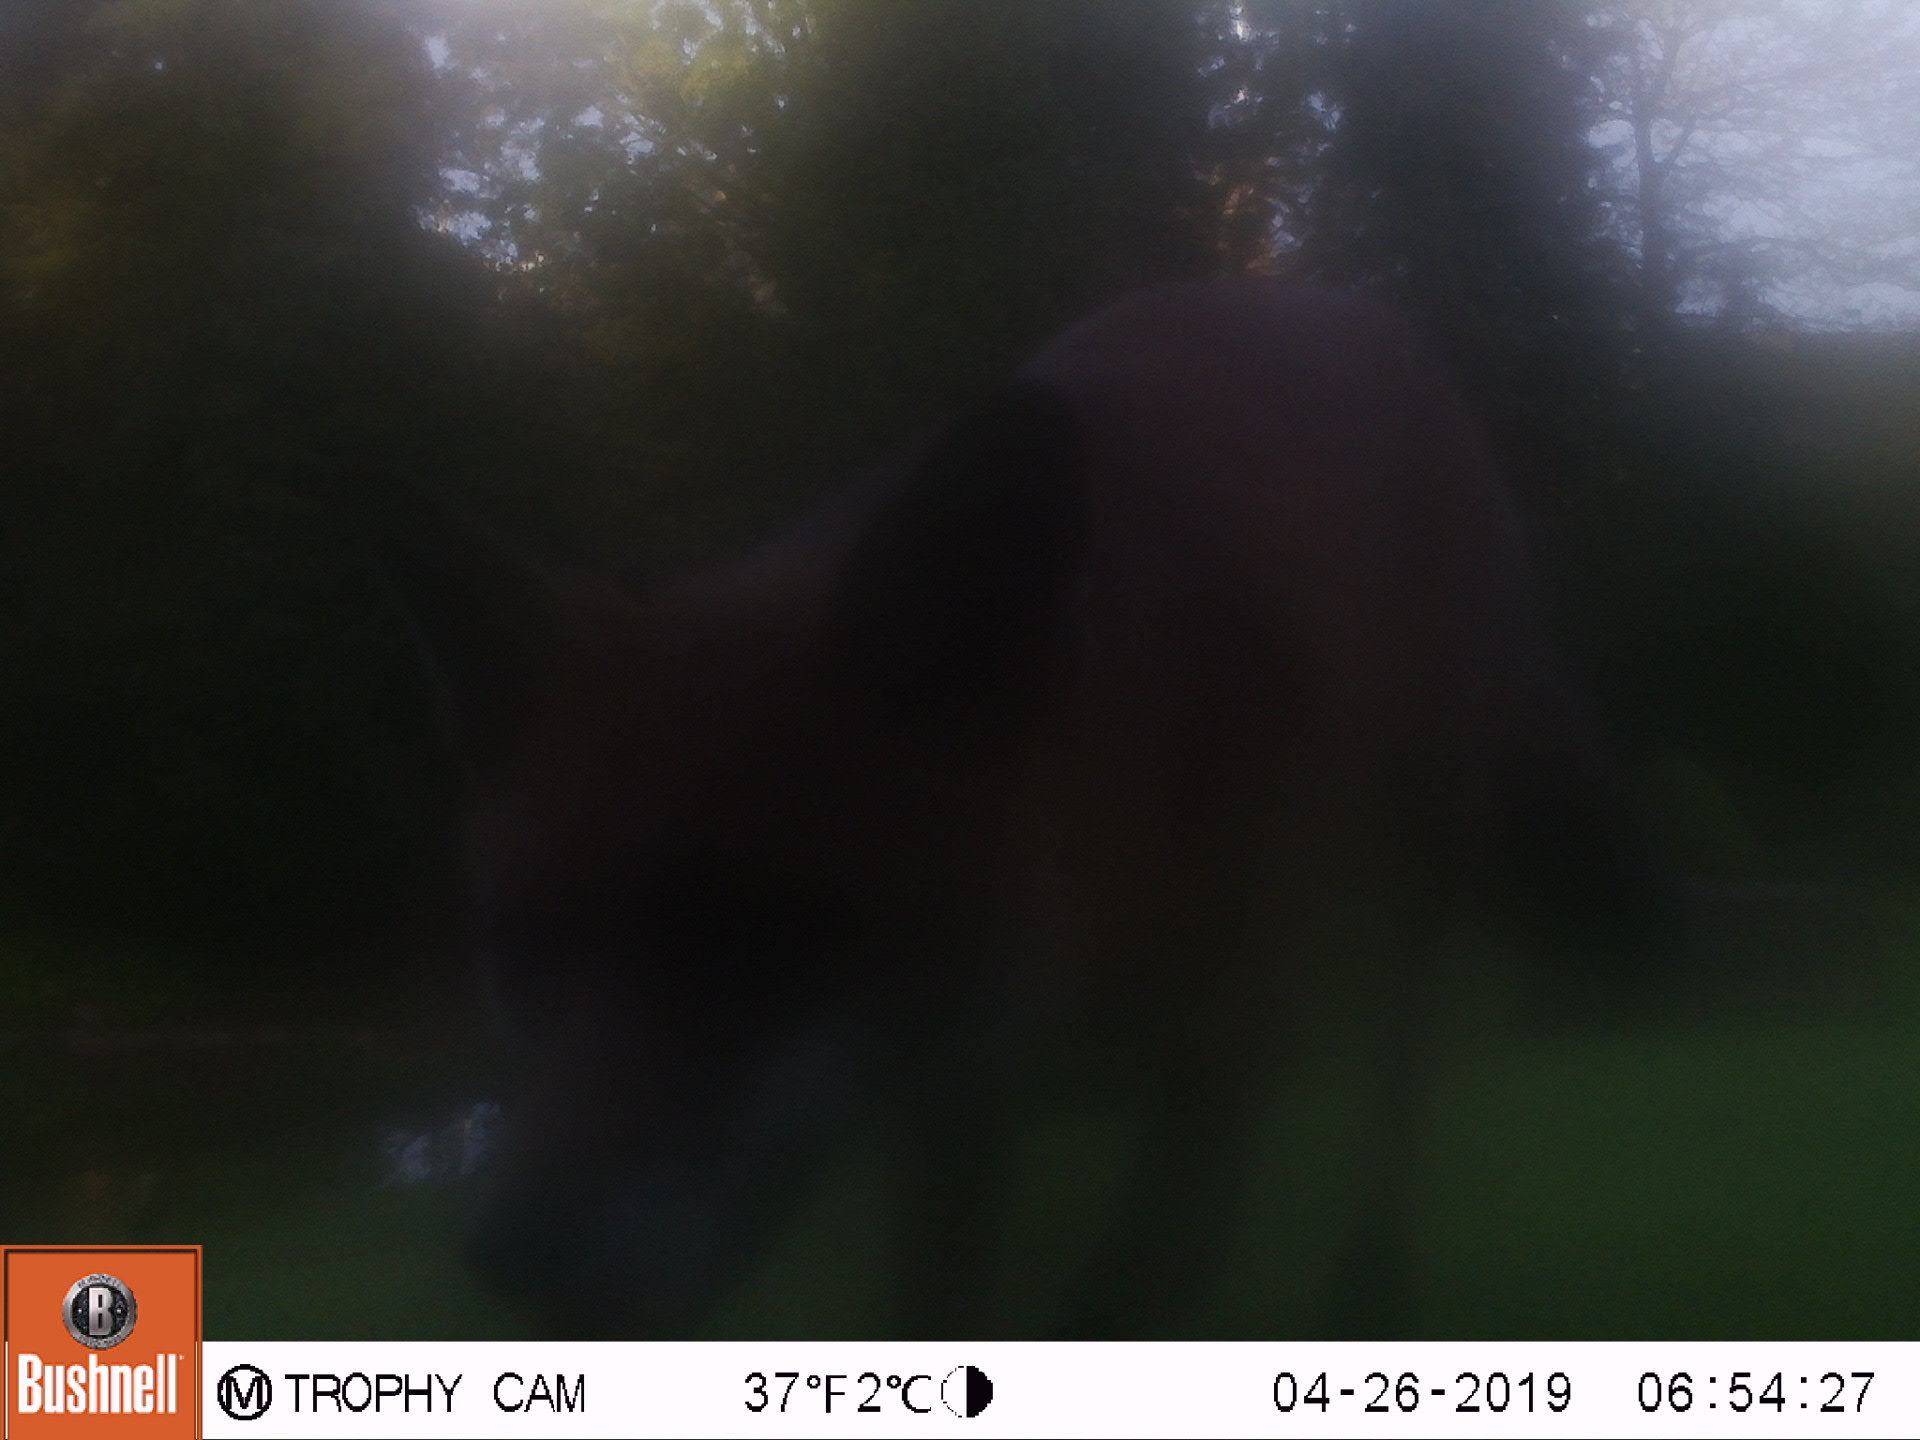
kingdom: Animalia
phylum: Chordata
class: Mammalia
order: Carnivora
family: Canidae
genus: Vulpes
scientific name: Vulpes vulpes
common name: Red fox
